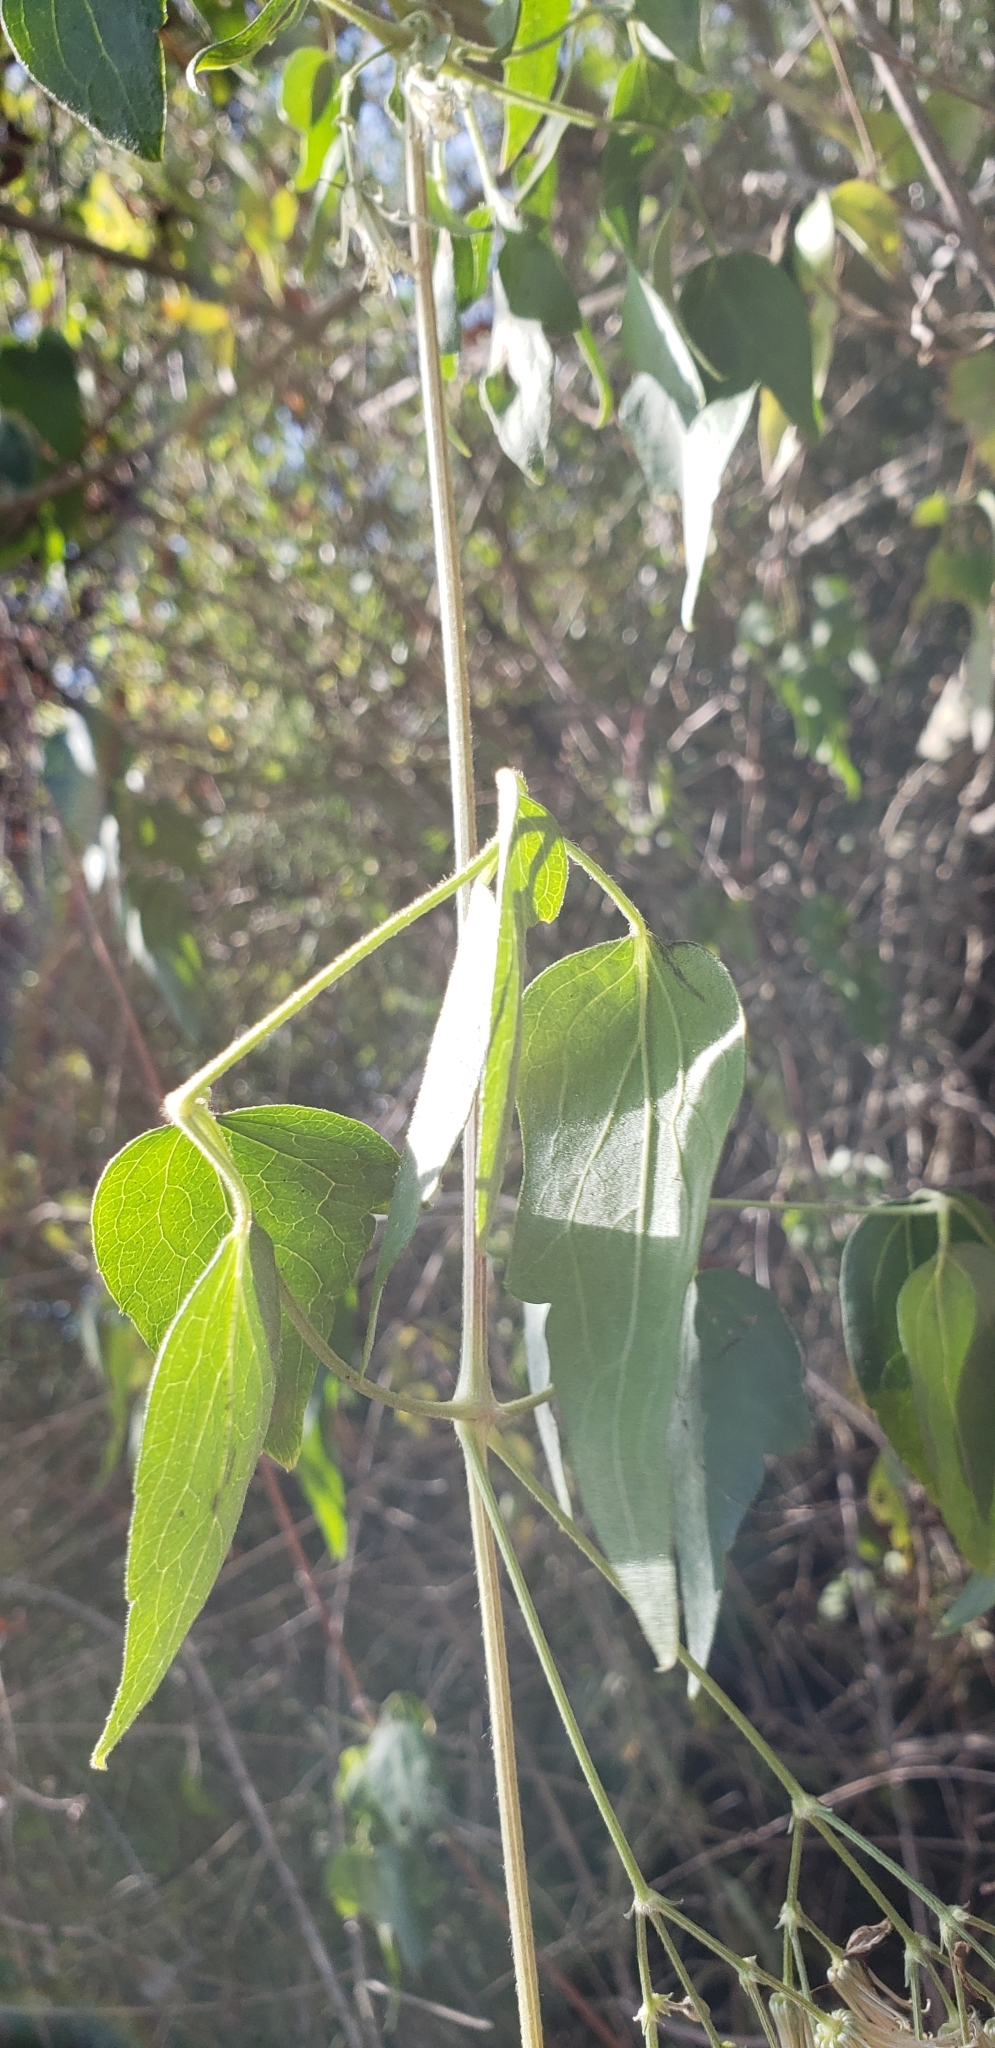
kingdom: Plantae
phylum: Tracheophyta
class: Magnoliopsida
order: Ranunculales
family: Ranunculaceae
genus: Clematis
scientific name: Clematis ligusticifolia
